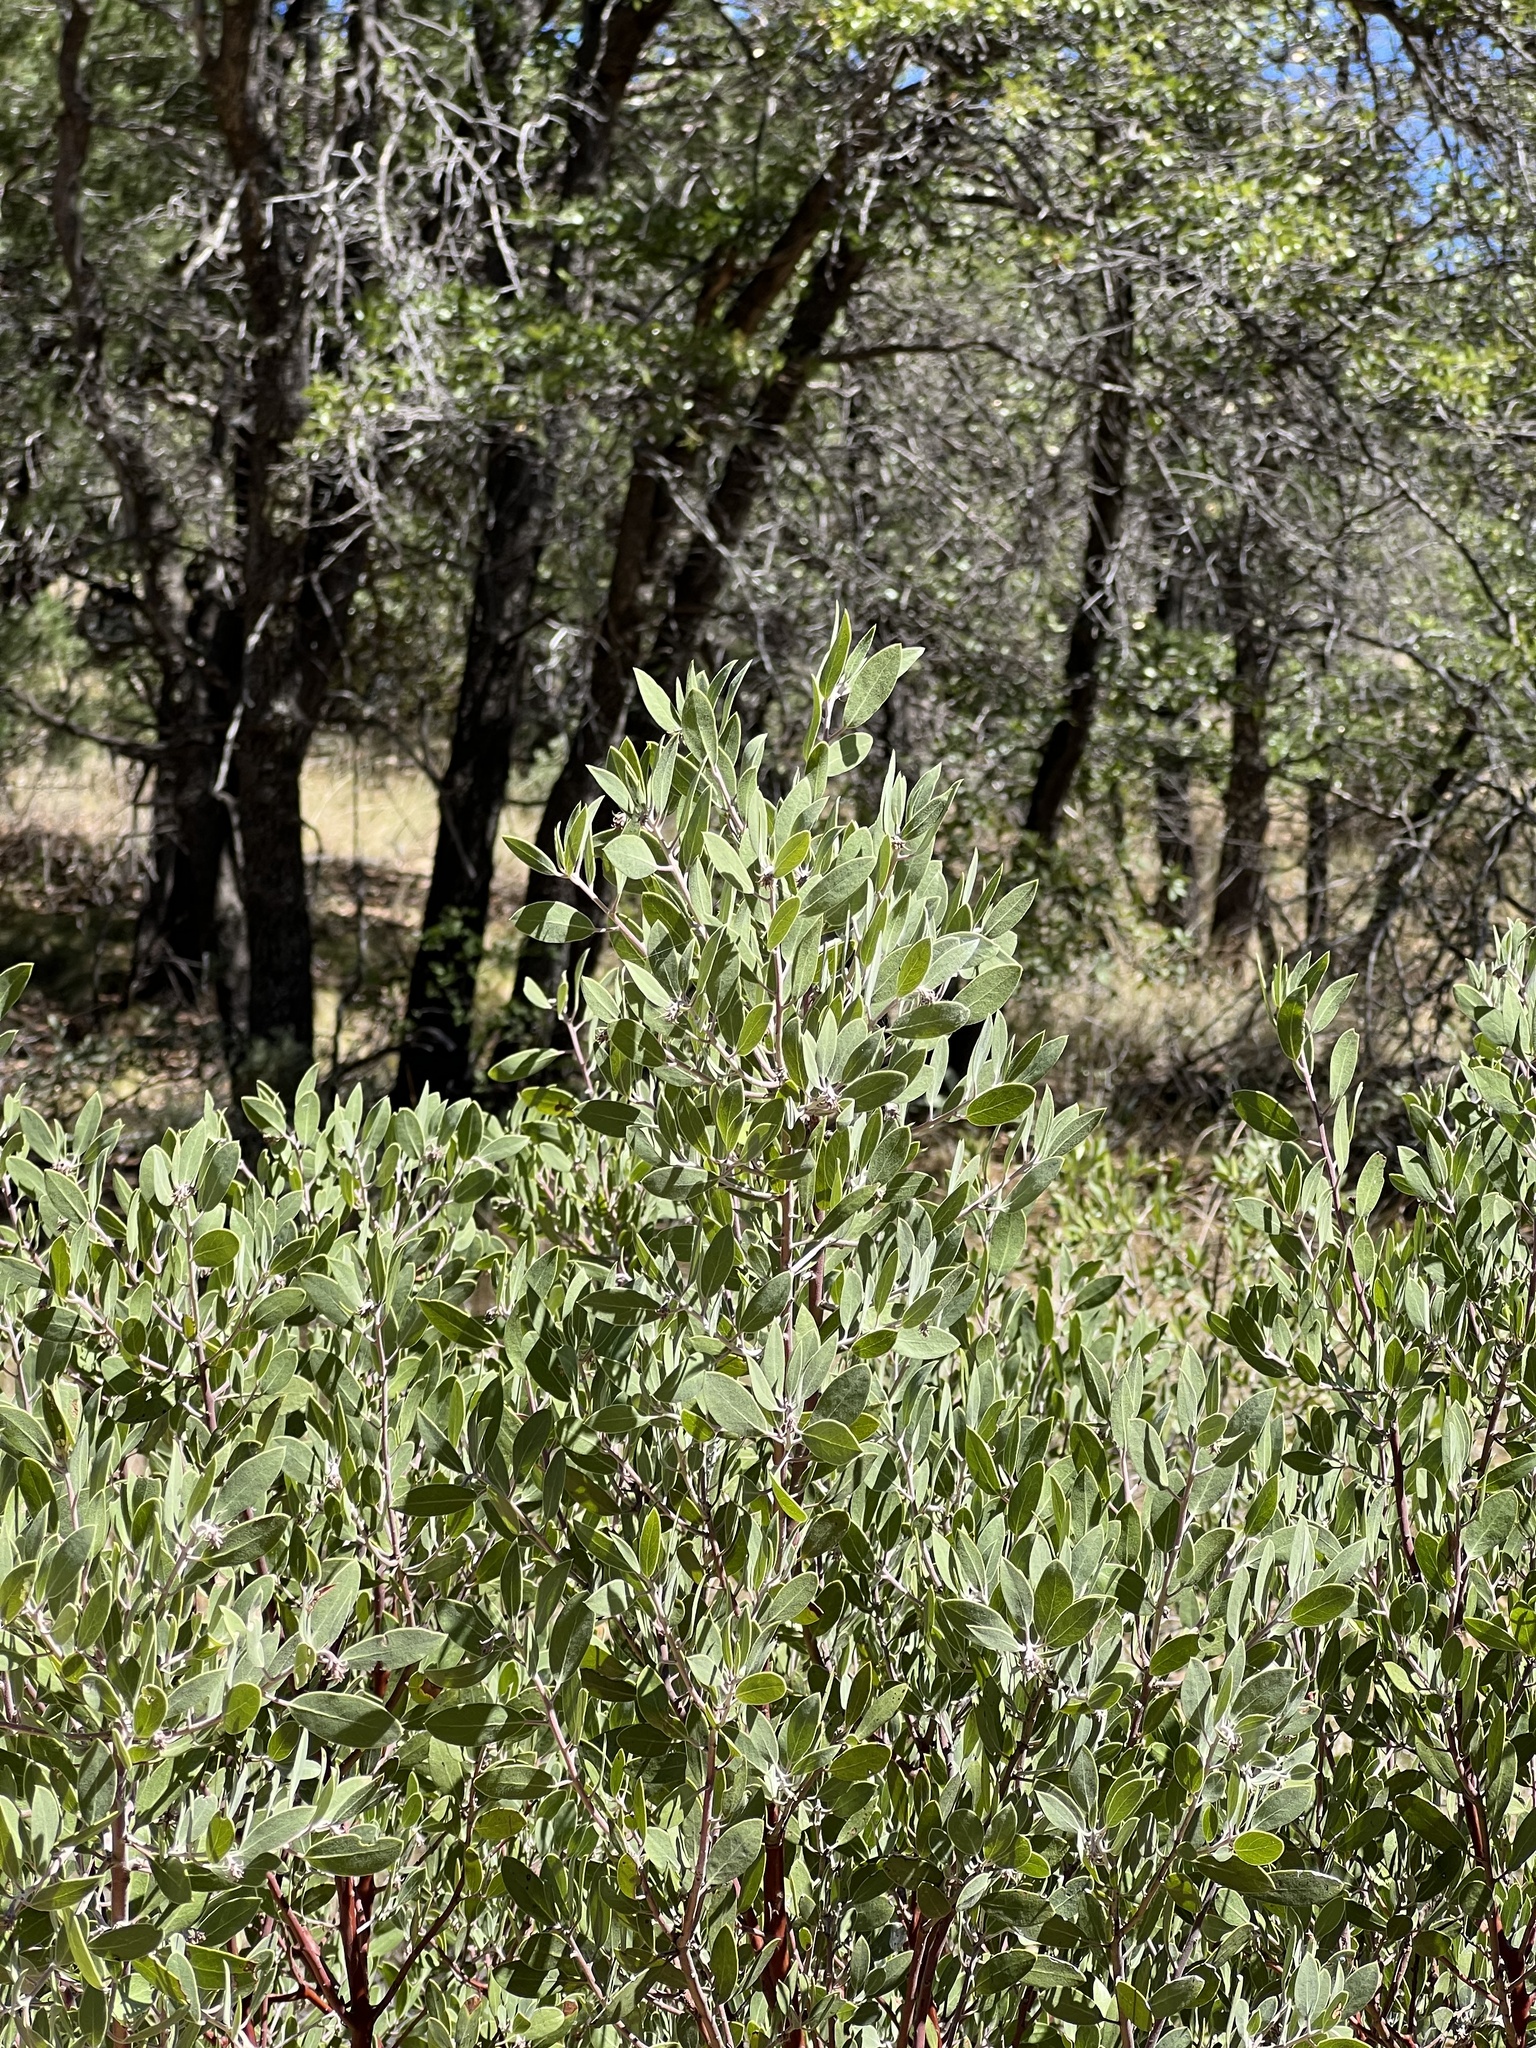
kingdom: Plantae
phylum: Tracheophyta
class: Magnoliopsida
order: Ericales
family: Ericaceae
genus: Arctostaphylos
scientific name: Arctostaphylos pungens
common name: Mexican manzanita
